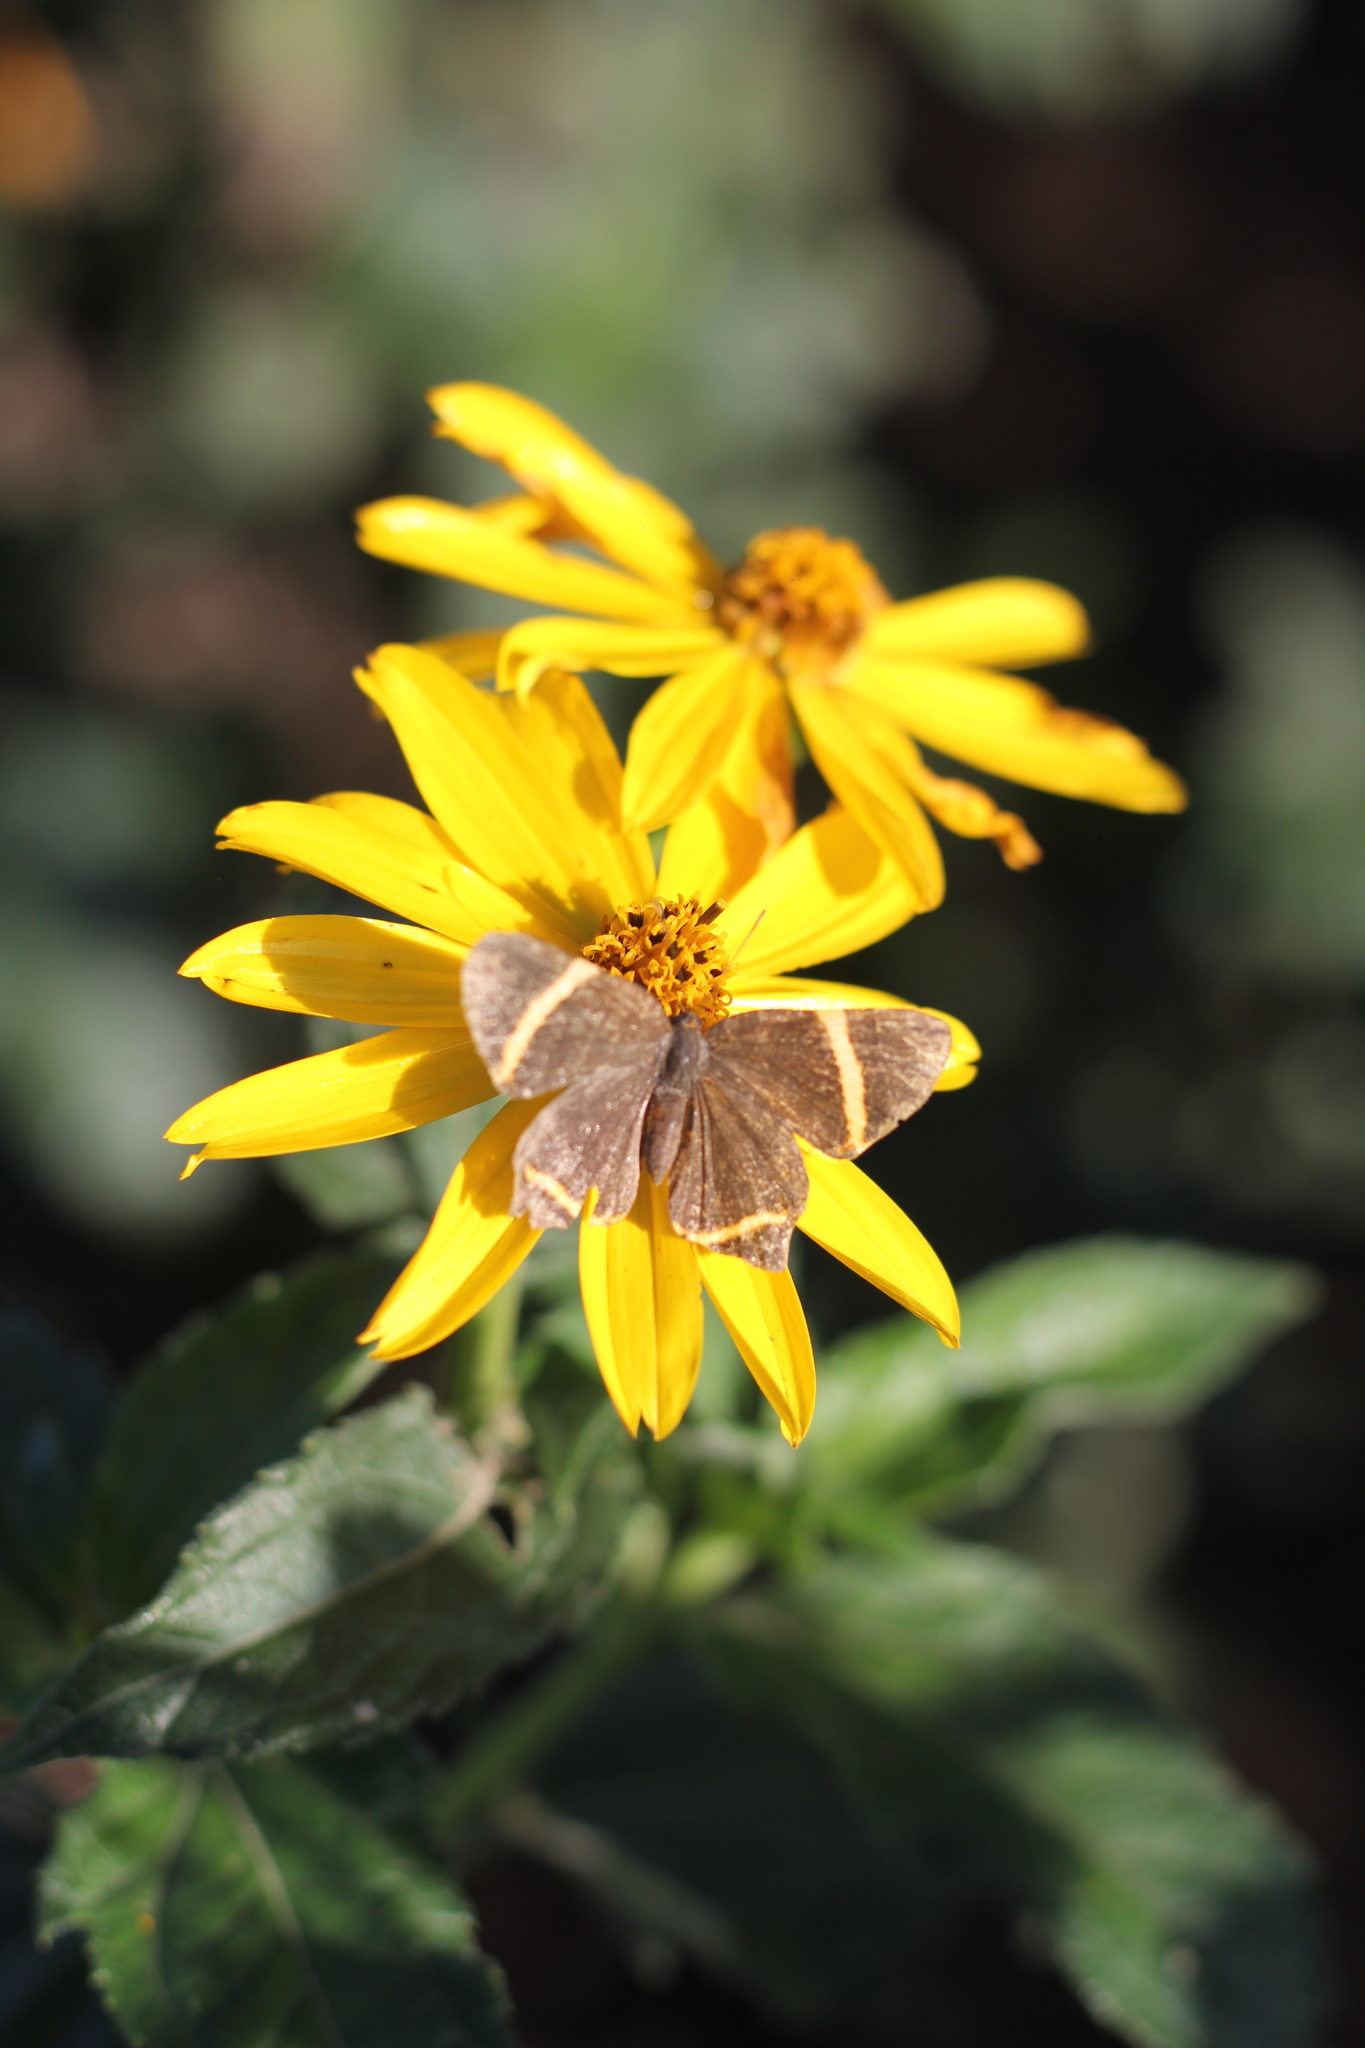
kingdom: Animalia
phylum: Arthropoda
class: Insecta
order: Lepidoptera
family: Riodinidae
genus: Riodina
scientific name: Riodina lysippoides
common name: Little dancer metalmark
